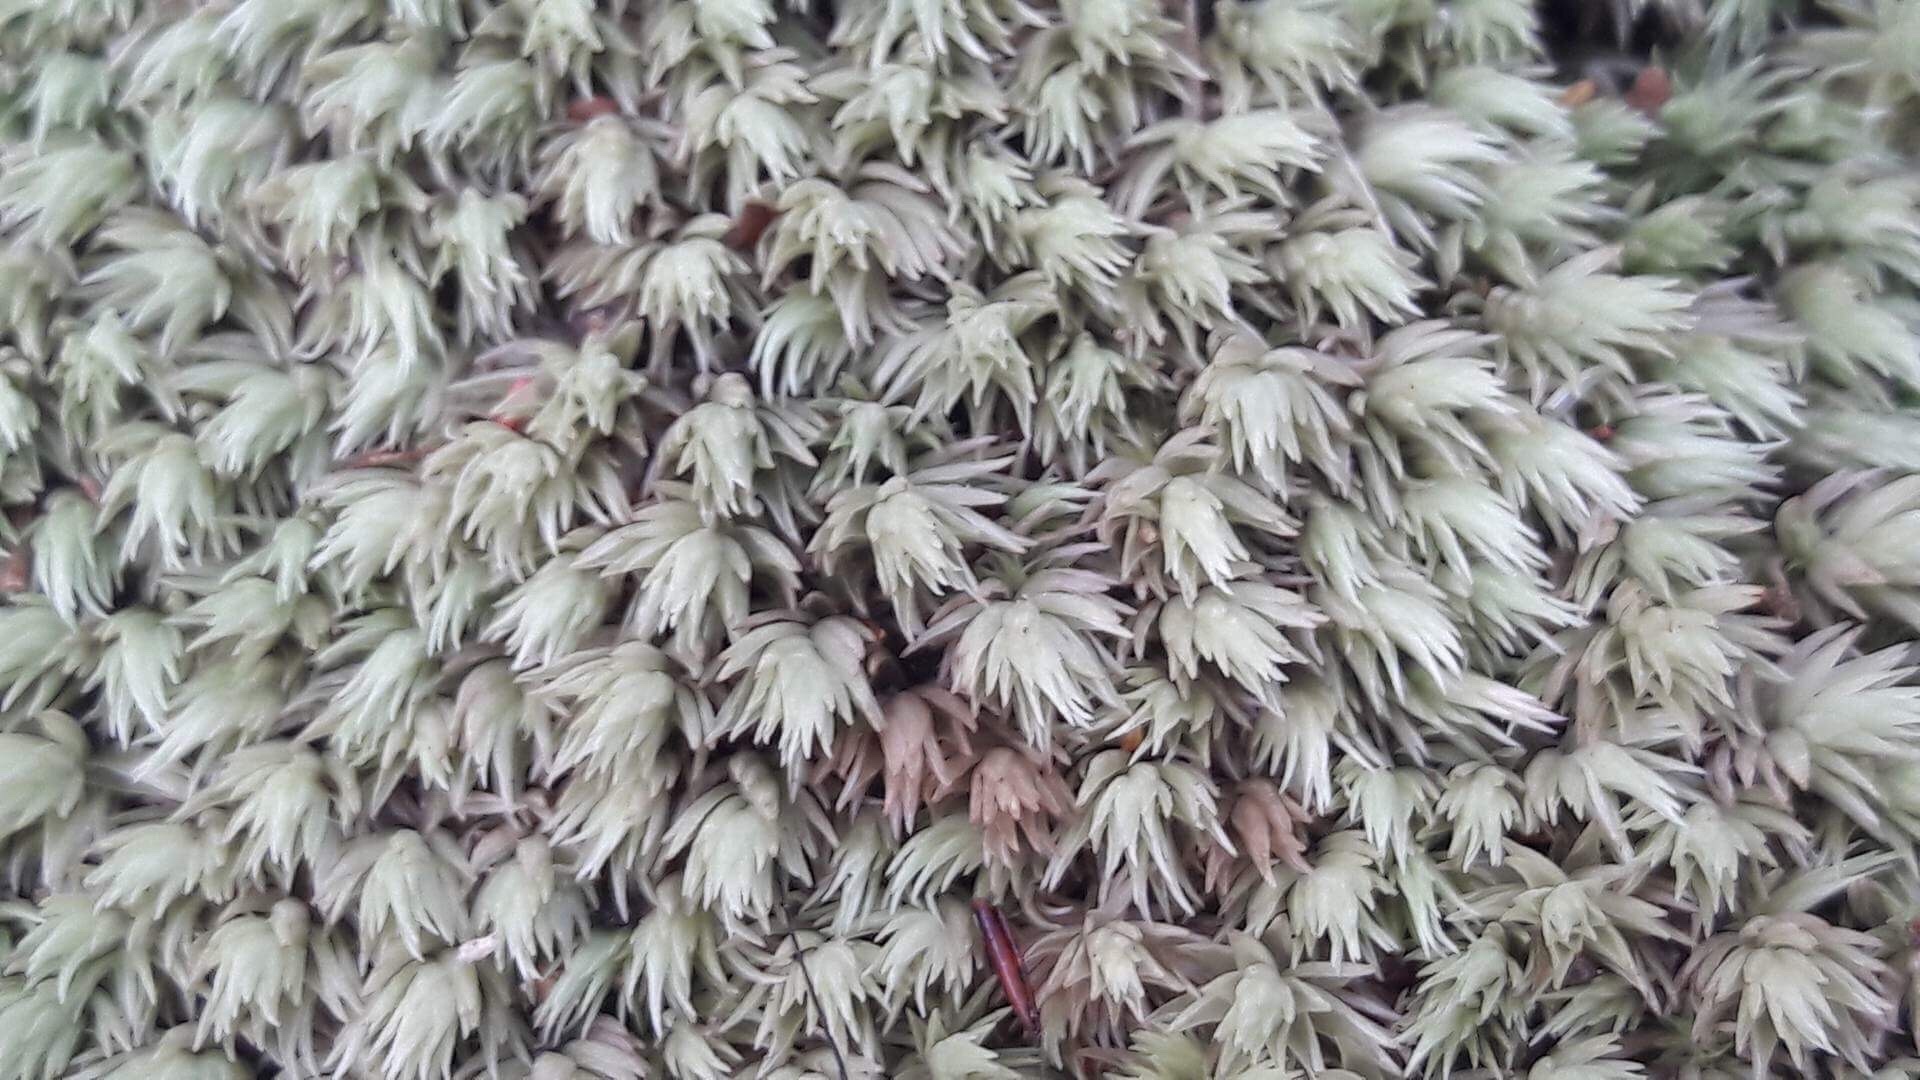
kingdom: Plantae
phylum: Bryophyta
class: Bryopsida
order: Dicranales
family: Leucobryaceae
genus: Leucobryum
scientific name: Leucobryum javense
